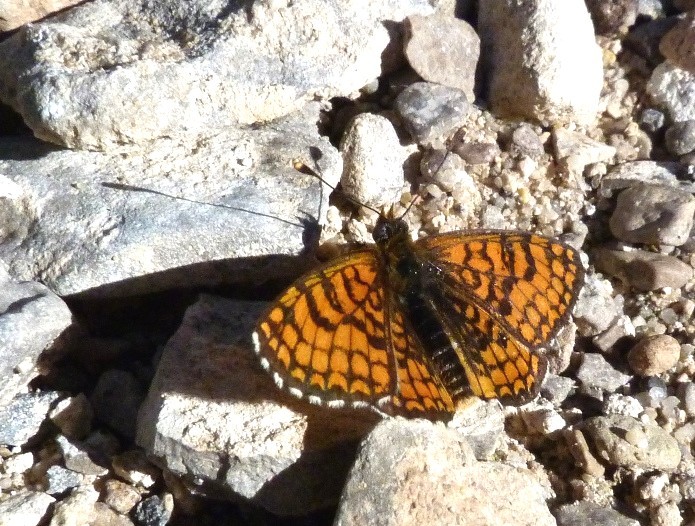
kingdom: Animalia
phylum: Arthropoda
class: Insecta
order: Lepidoptera
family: Nymphalidae
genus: Melitaea
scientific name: Melitaea deione
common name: Provençal fritillary
